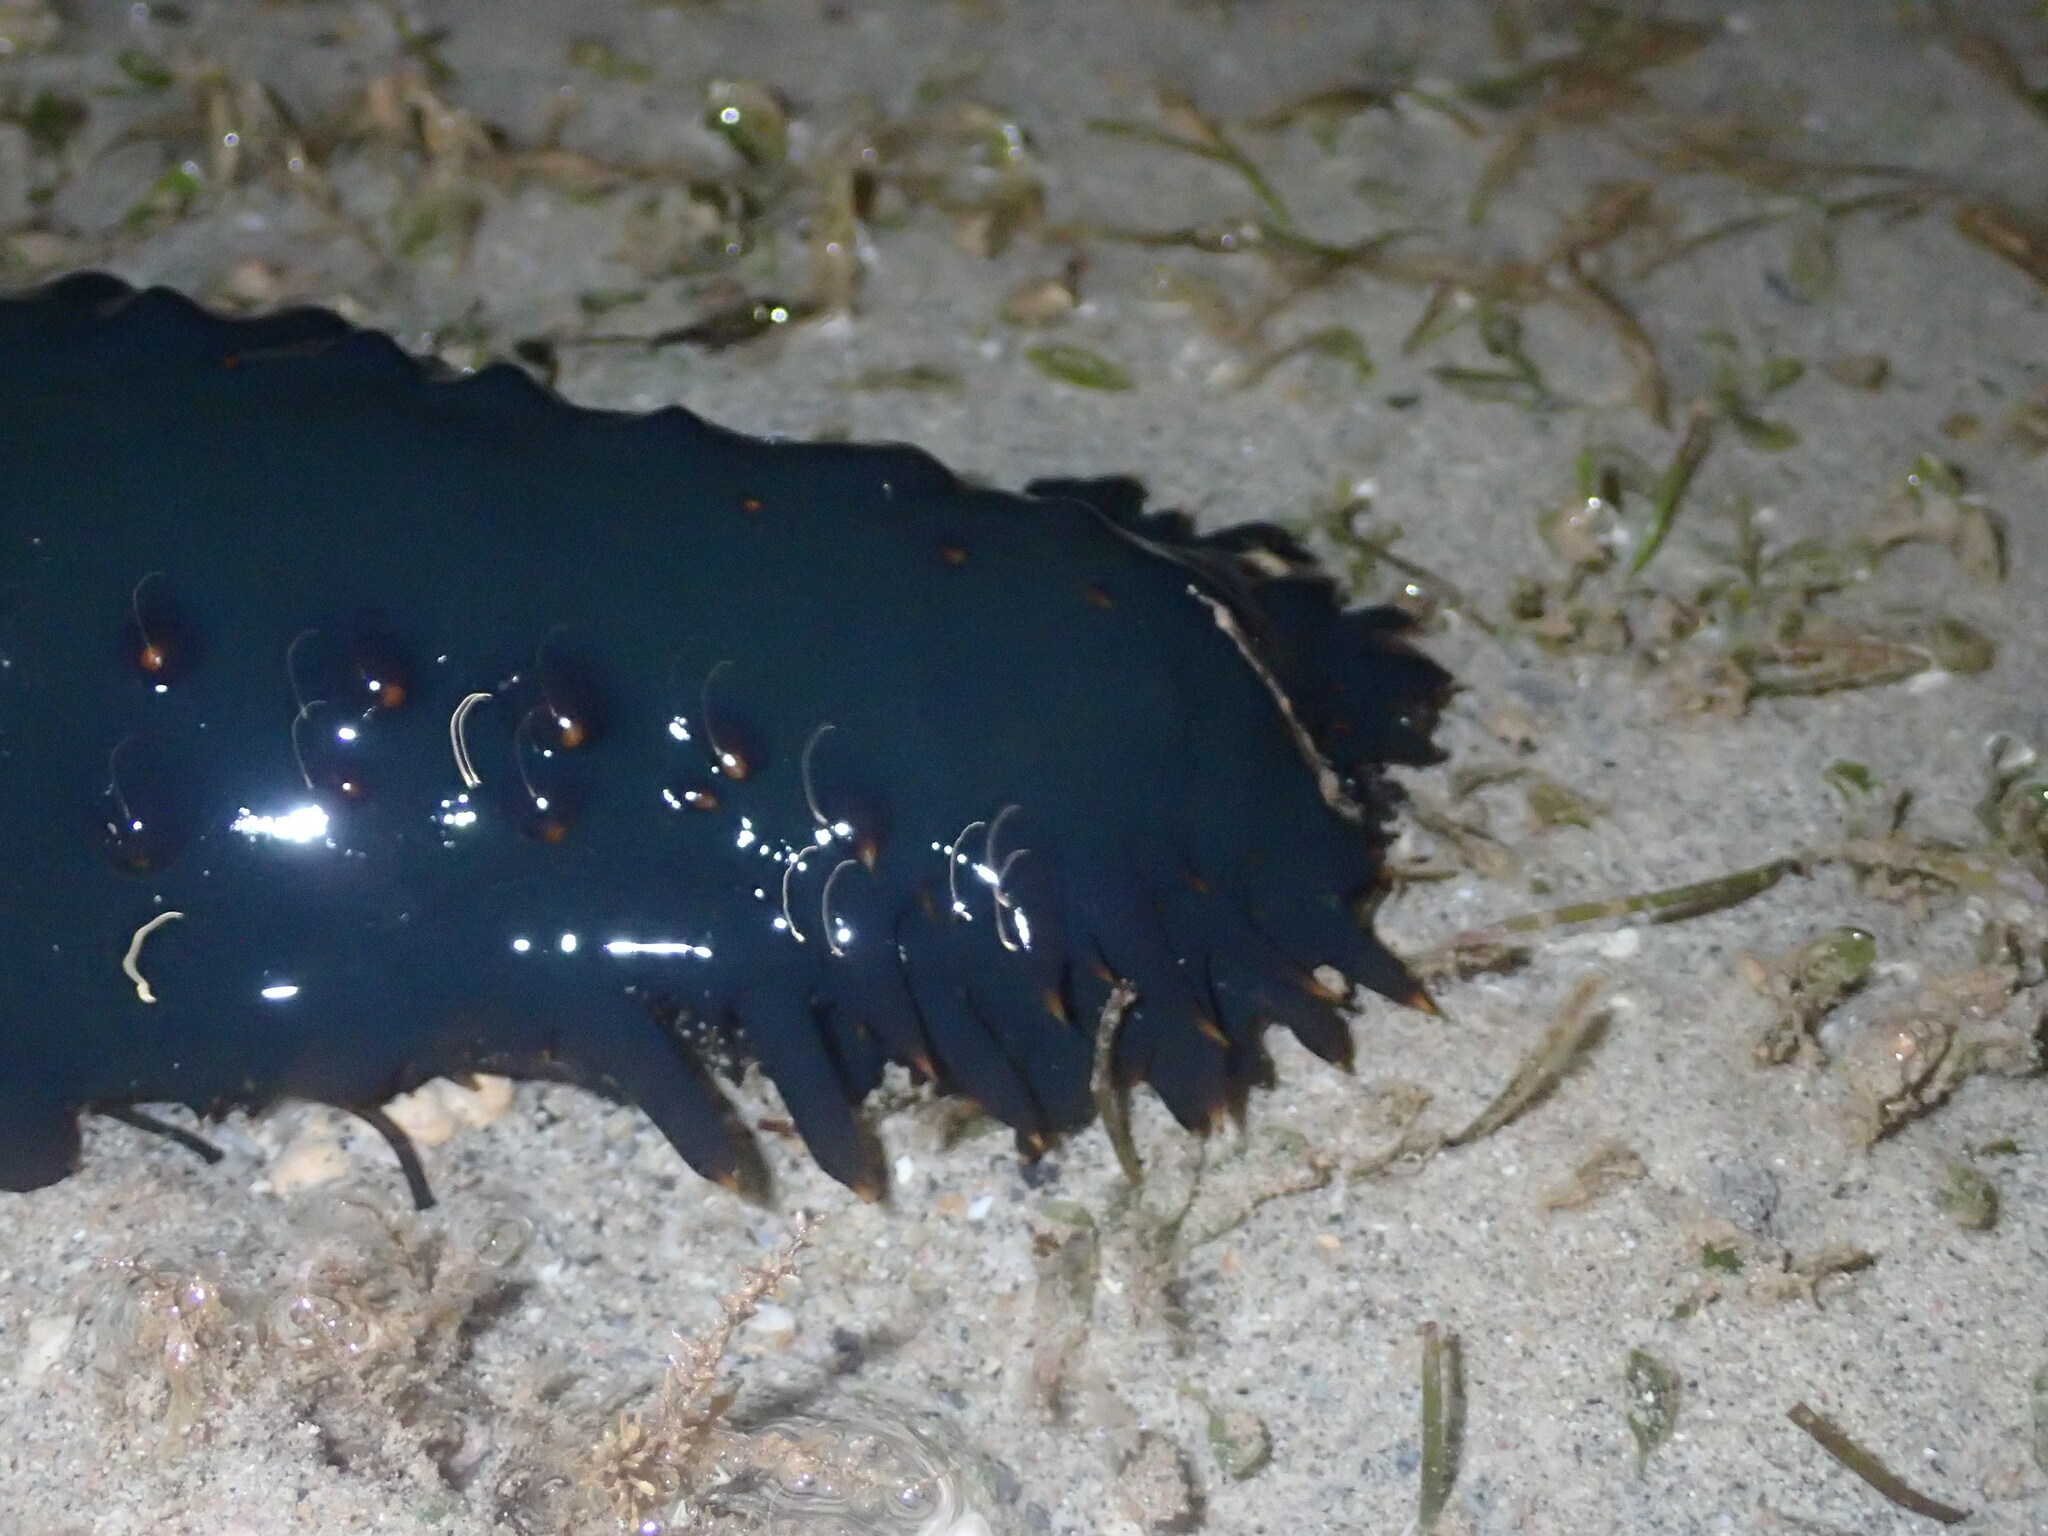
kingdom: Animalia
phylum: Echinodermata
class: Holothuroidea
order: Synallactida
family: Stichopodidae
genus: Stichopus
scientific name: Stichopus chloronotus
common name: Greenfish
